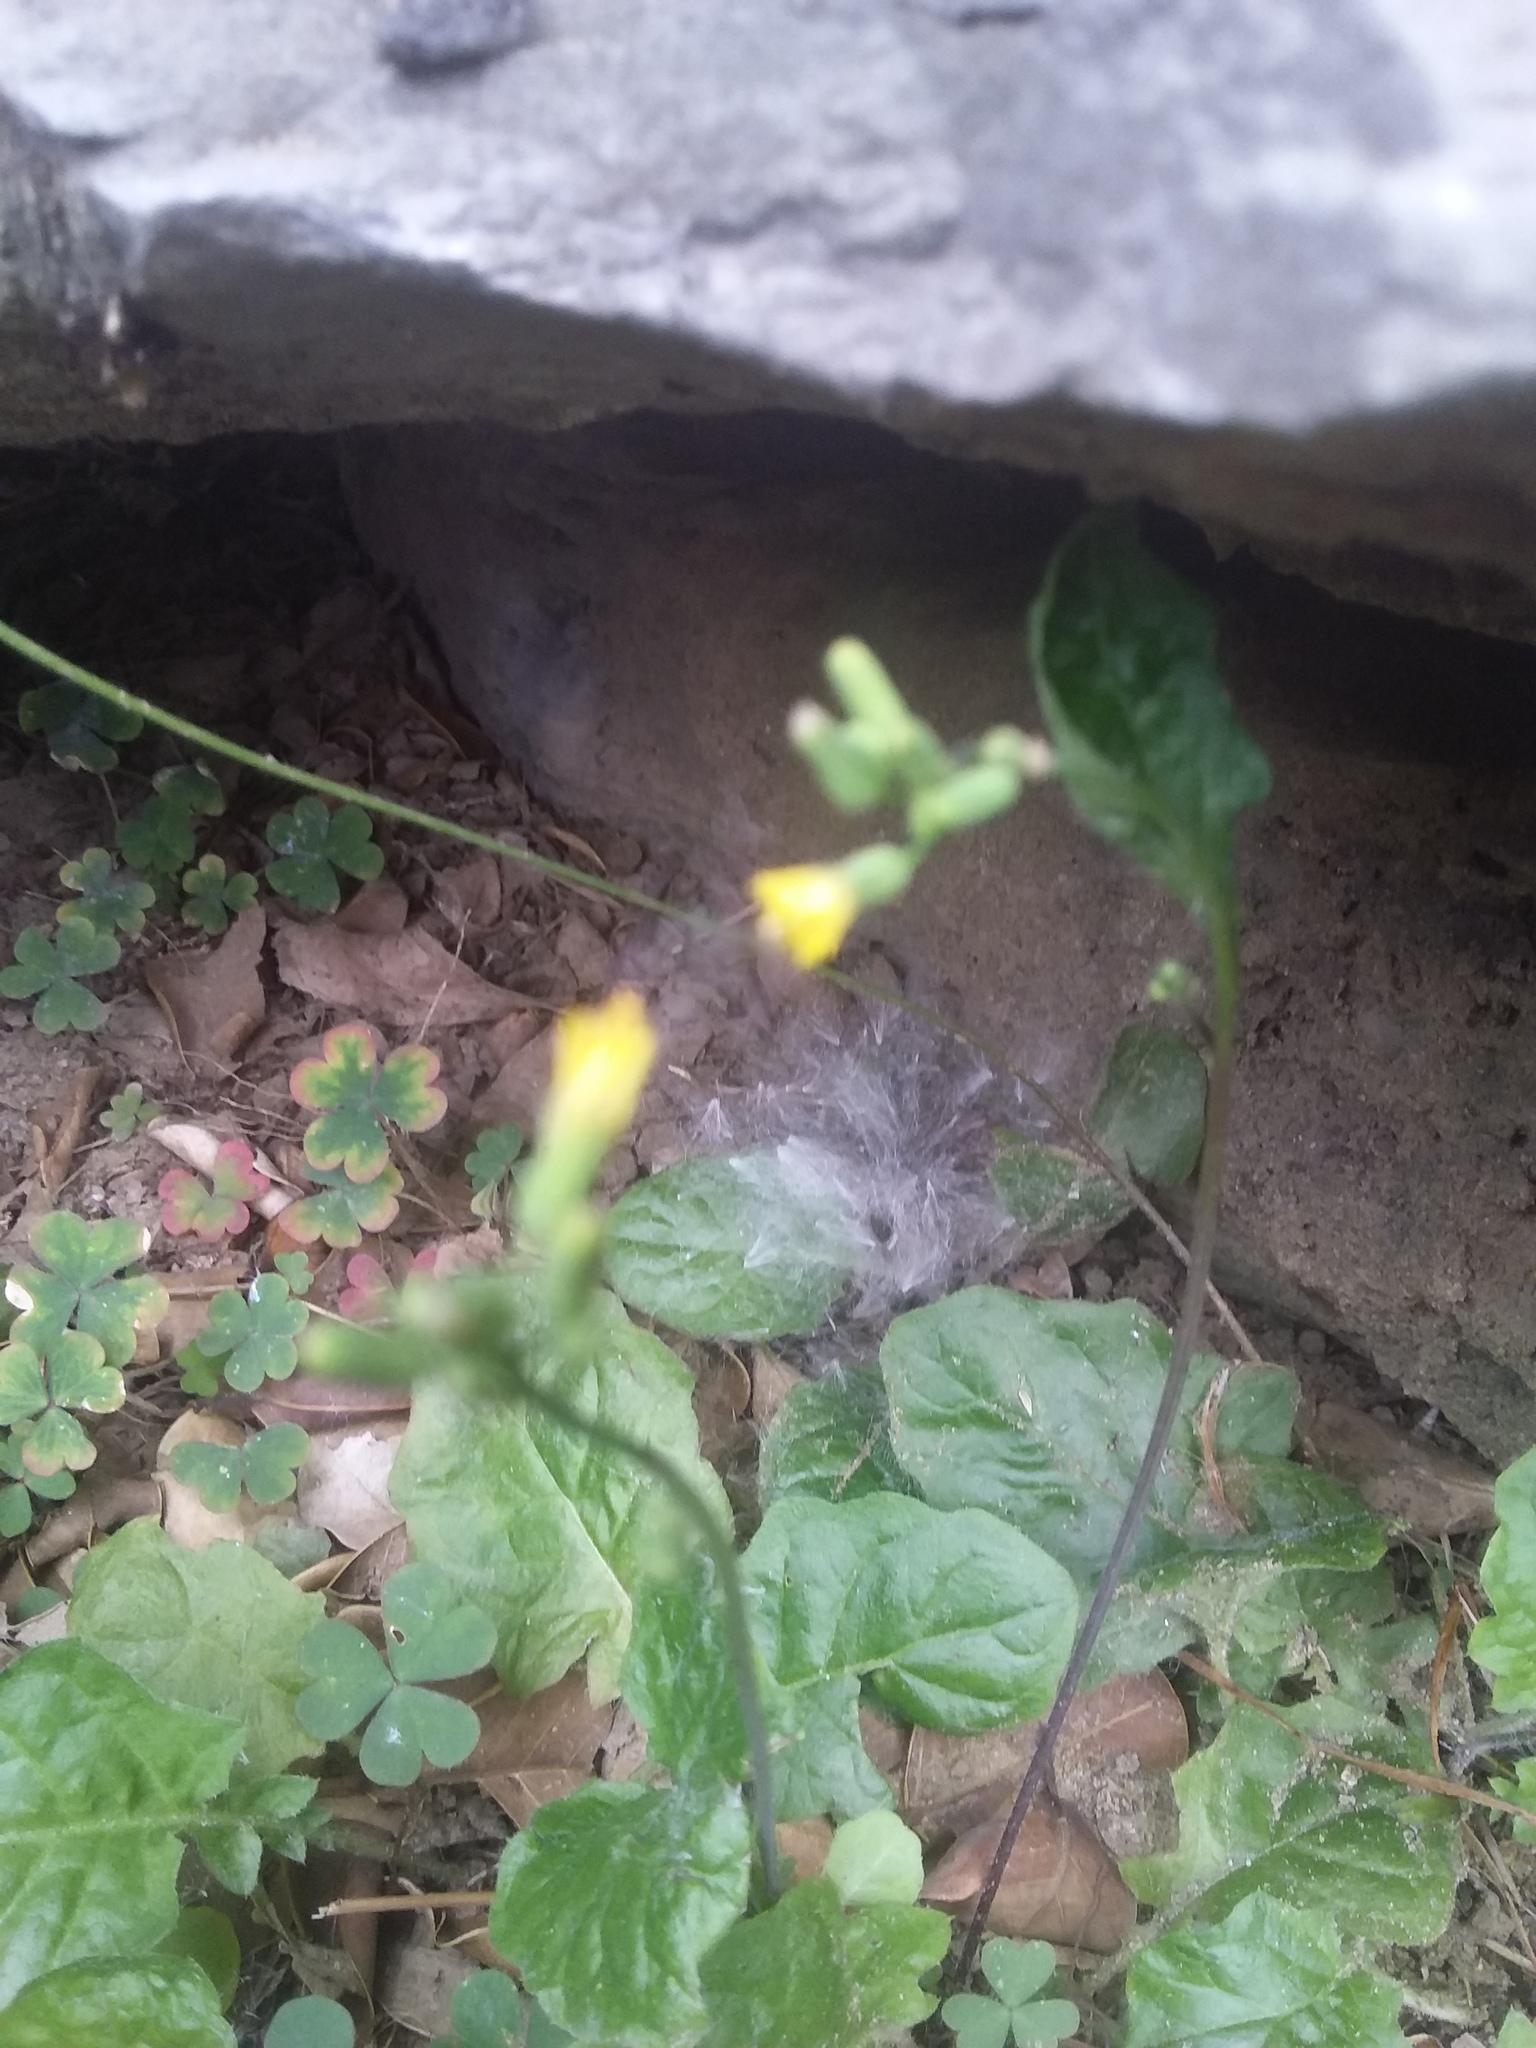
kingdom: Plantae
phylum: Tracheophyta
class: Magnoliopsida
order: Asterales
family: Asteraceae
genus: Youngia
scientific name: Youngia japonica
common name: Oriental false hawksbeard
